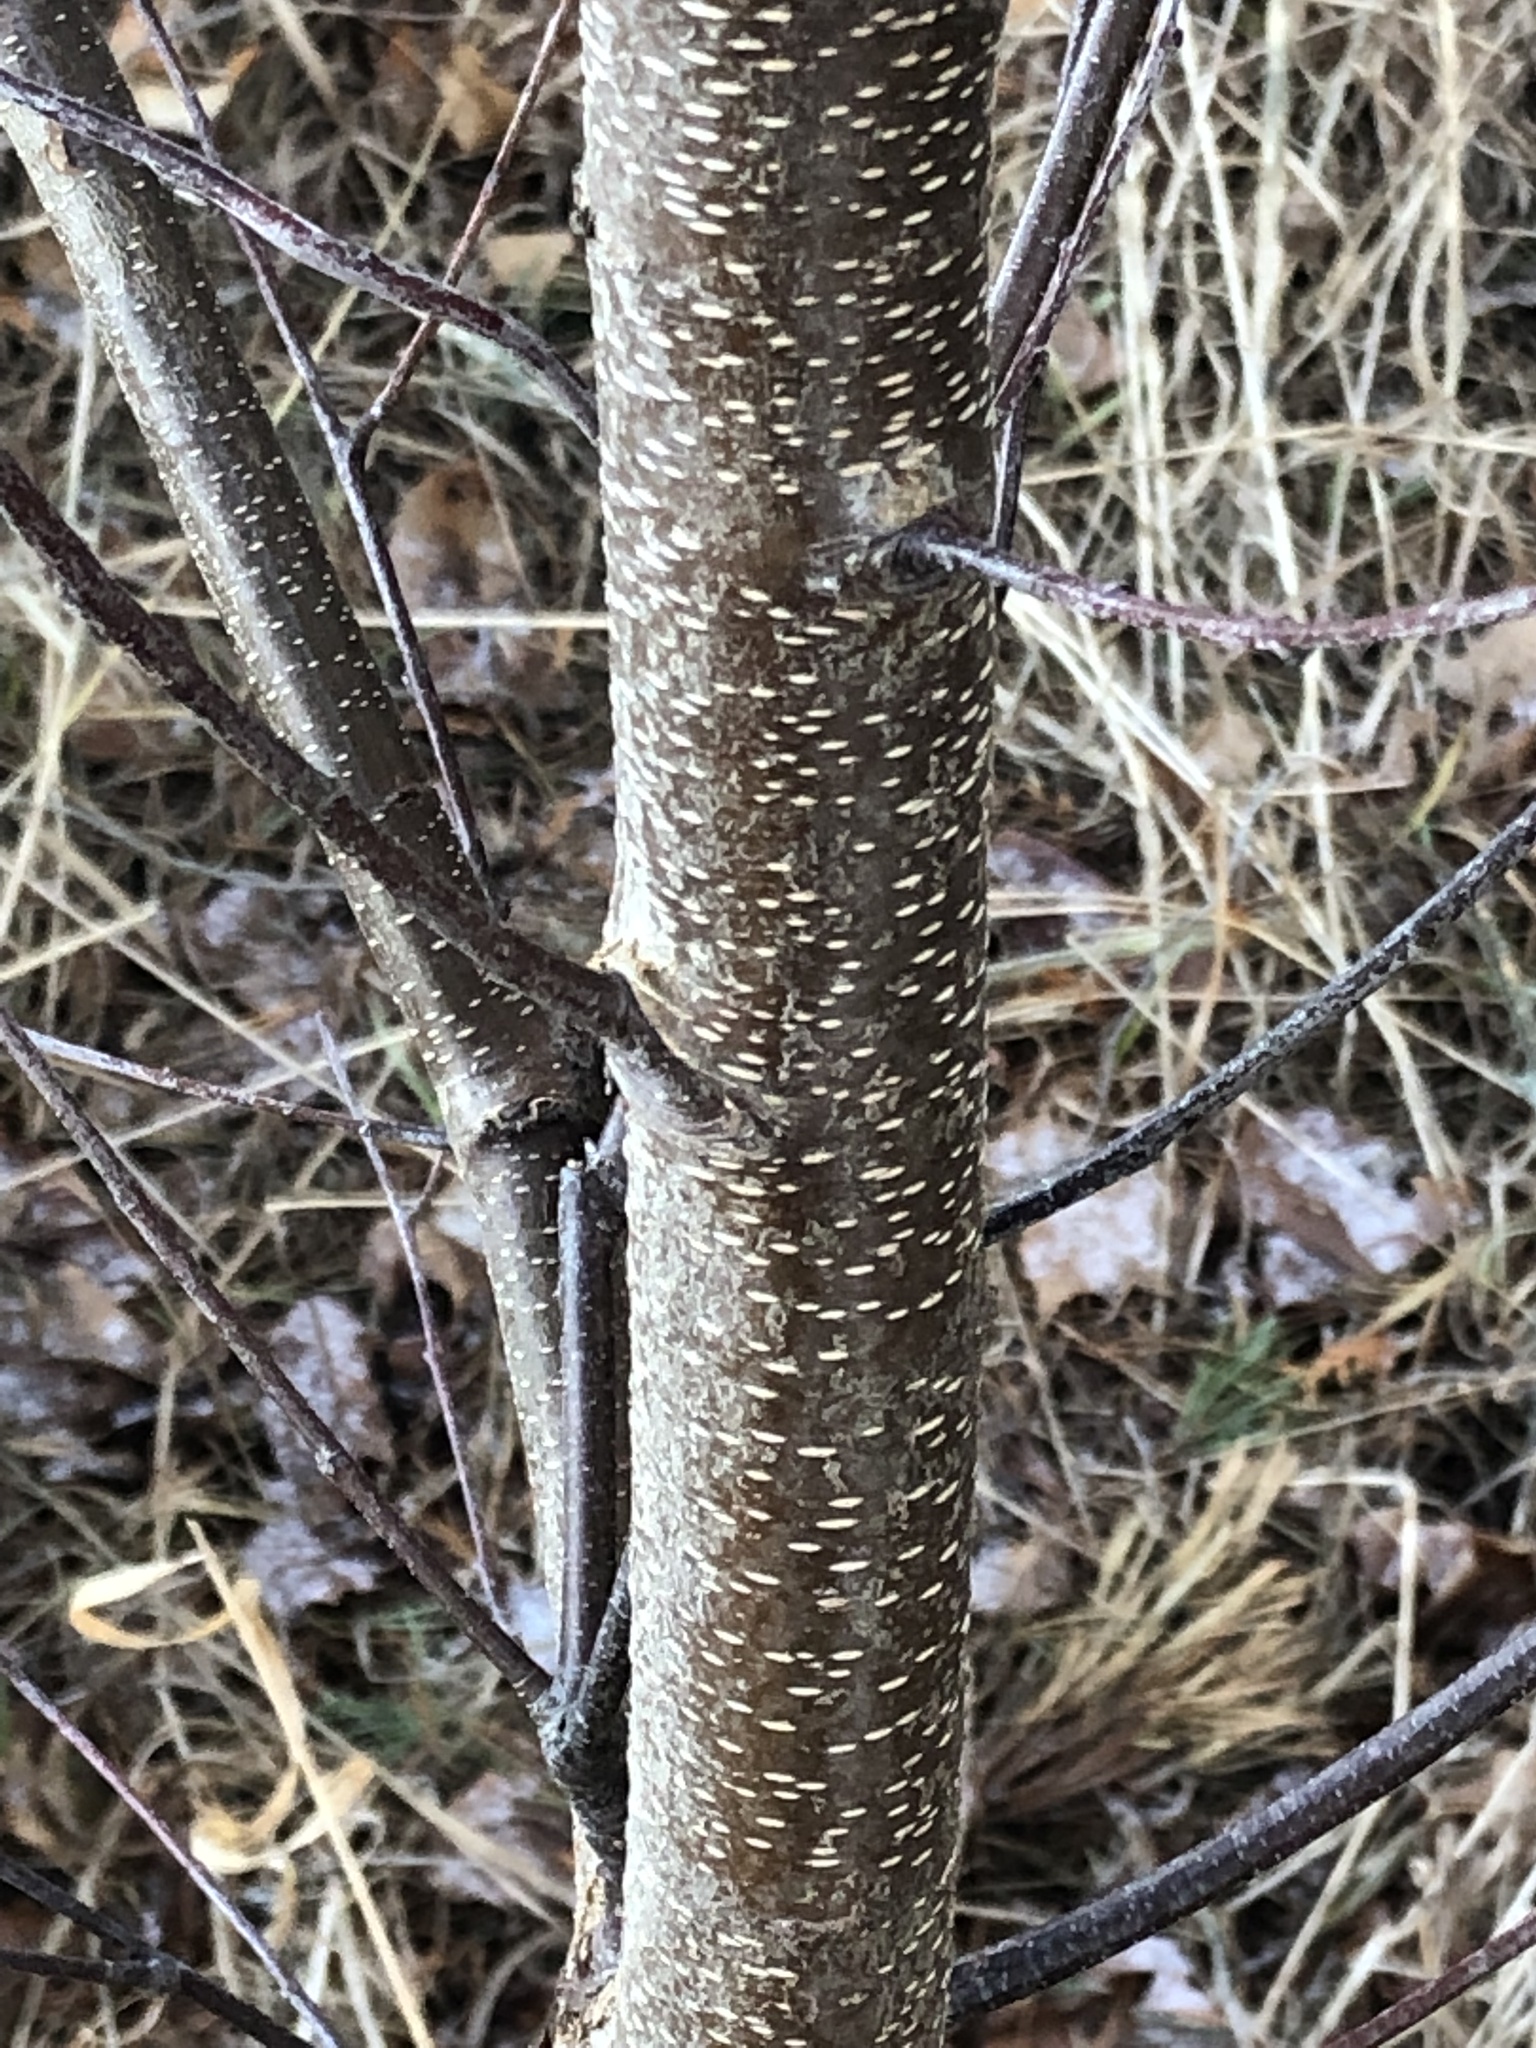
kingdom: Plantae
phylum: Tracheophyta
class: Magnoliopsida
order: Rosales
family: Rhamnaceae
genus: Rhamnus
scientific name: Rhamnus cathartica
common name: Common buckthorn
